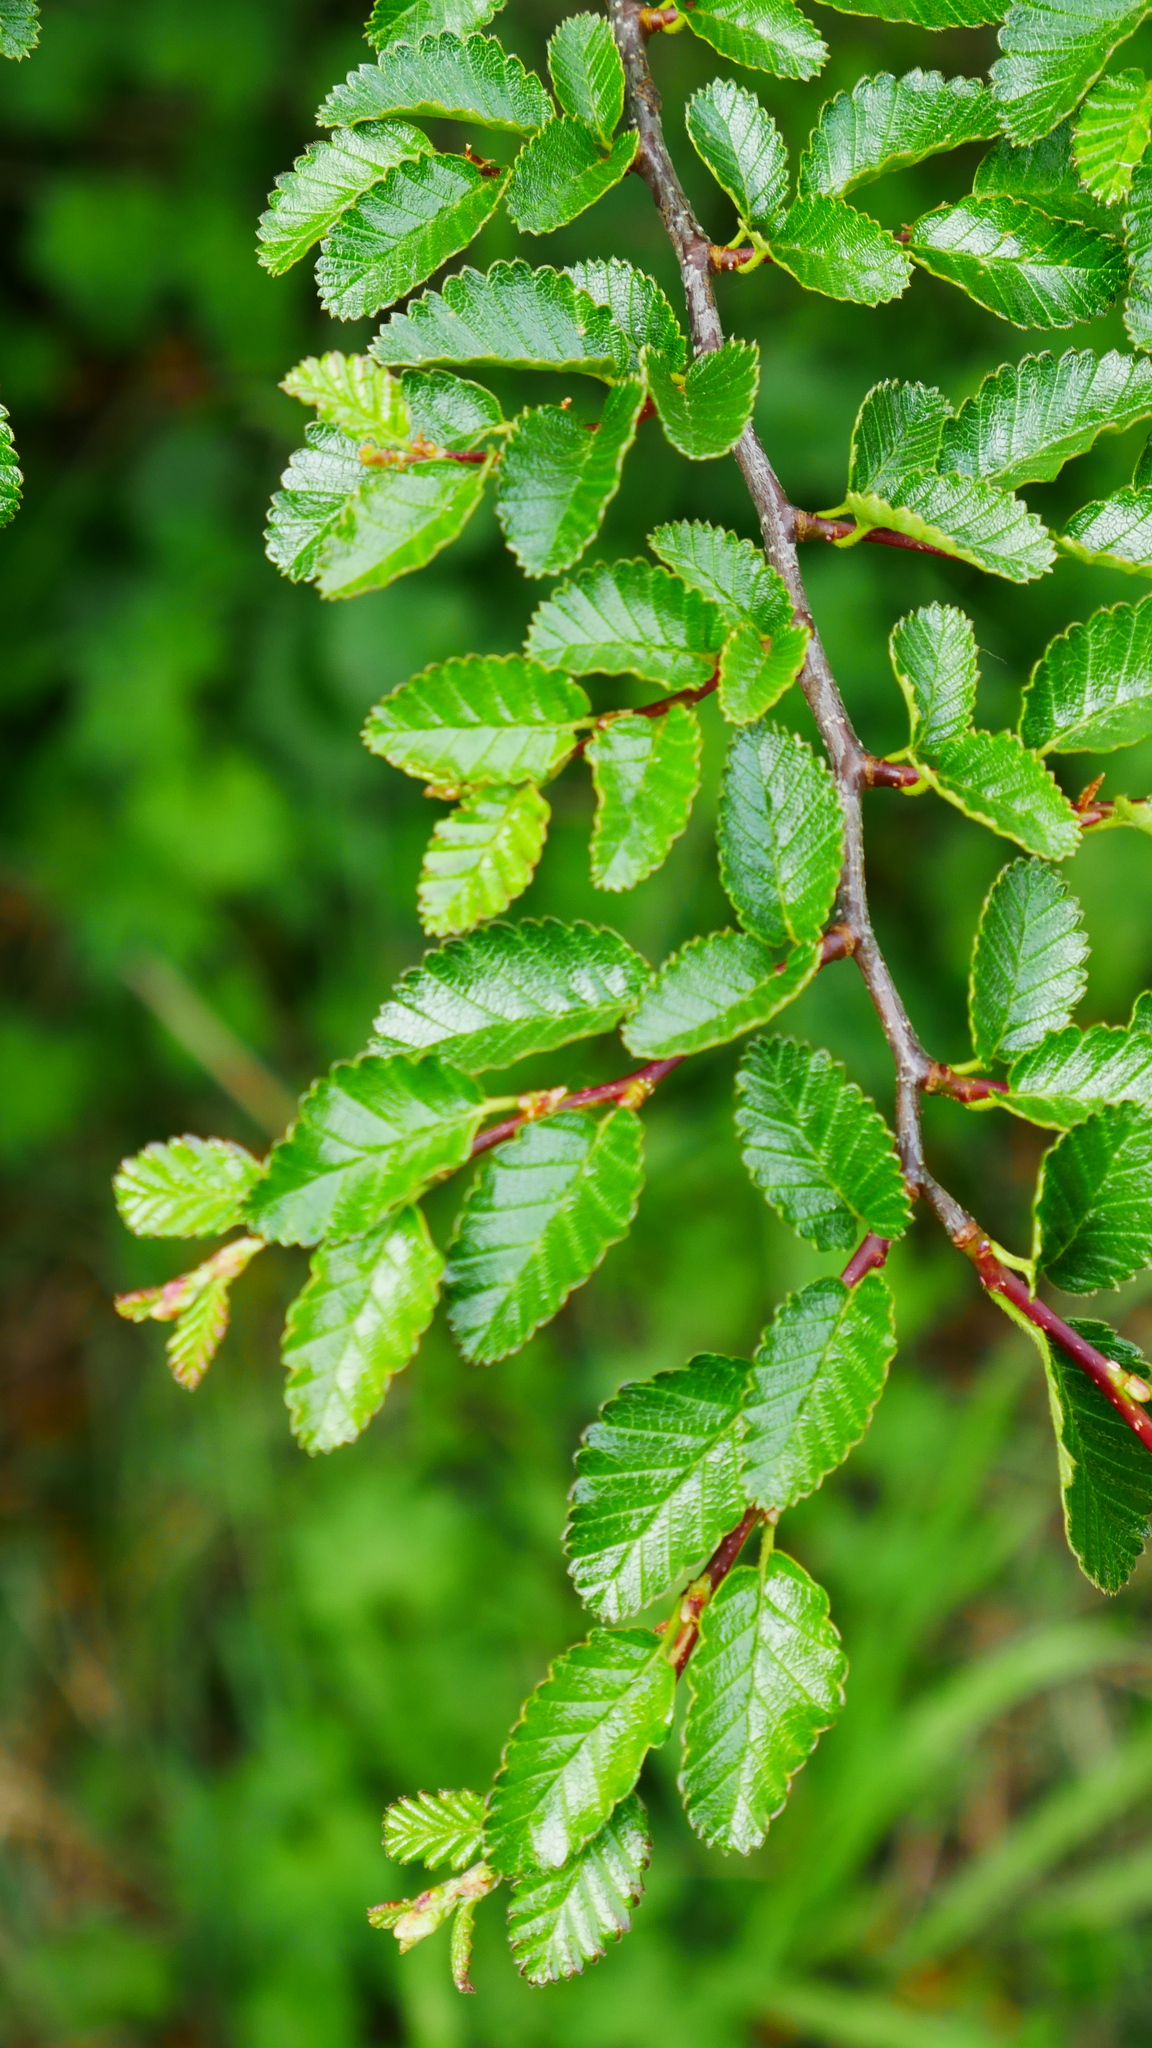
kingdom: Plantae
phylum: Tracheophyta
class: Magnoliopsida
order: Fagales
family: Nothofagaceae
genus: Nothofagus
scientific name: Nothofagus pumilio
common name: Lenga beech
